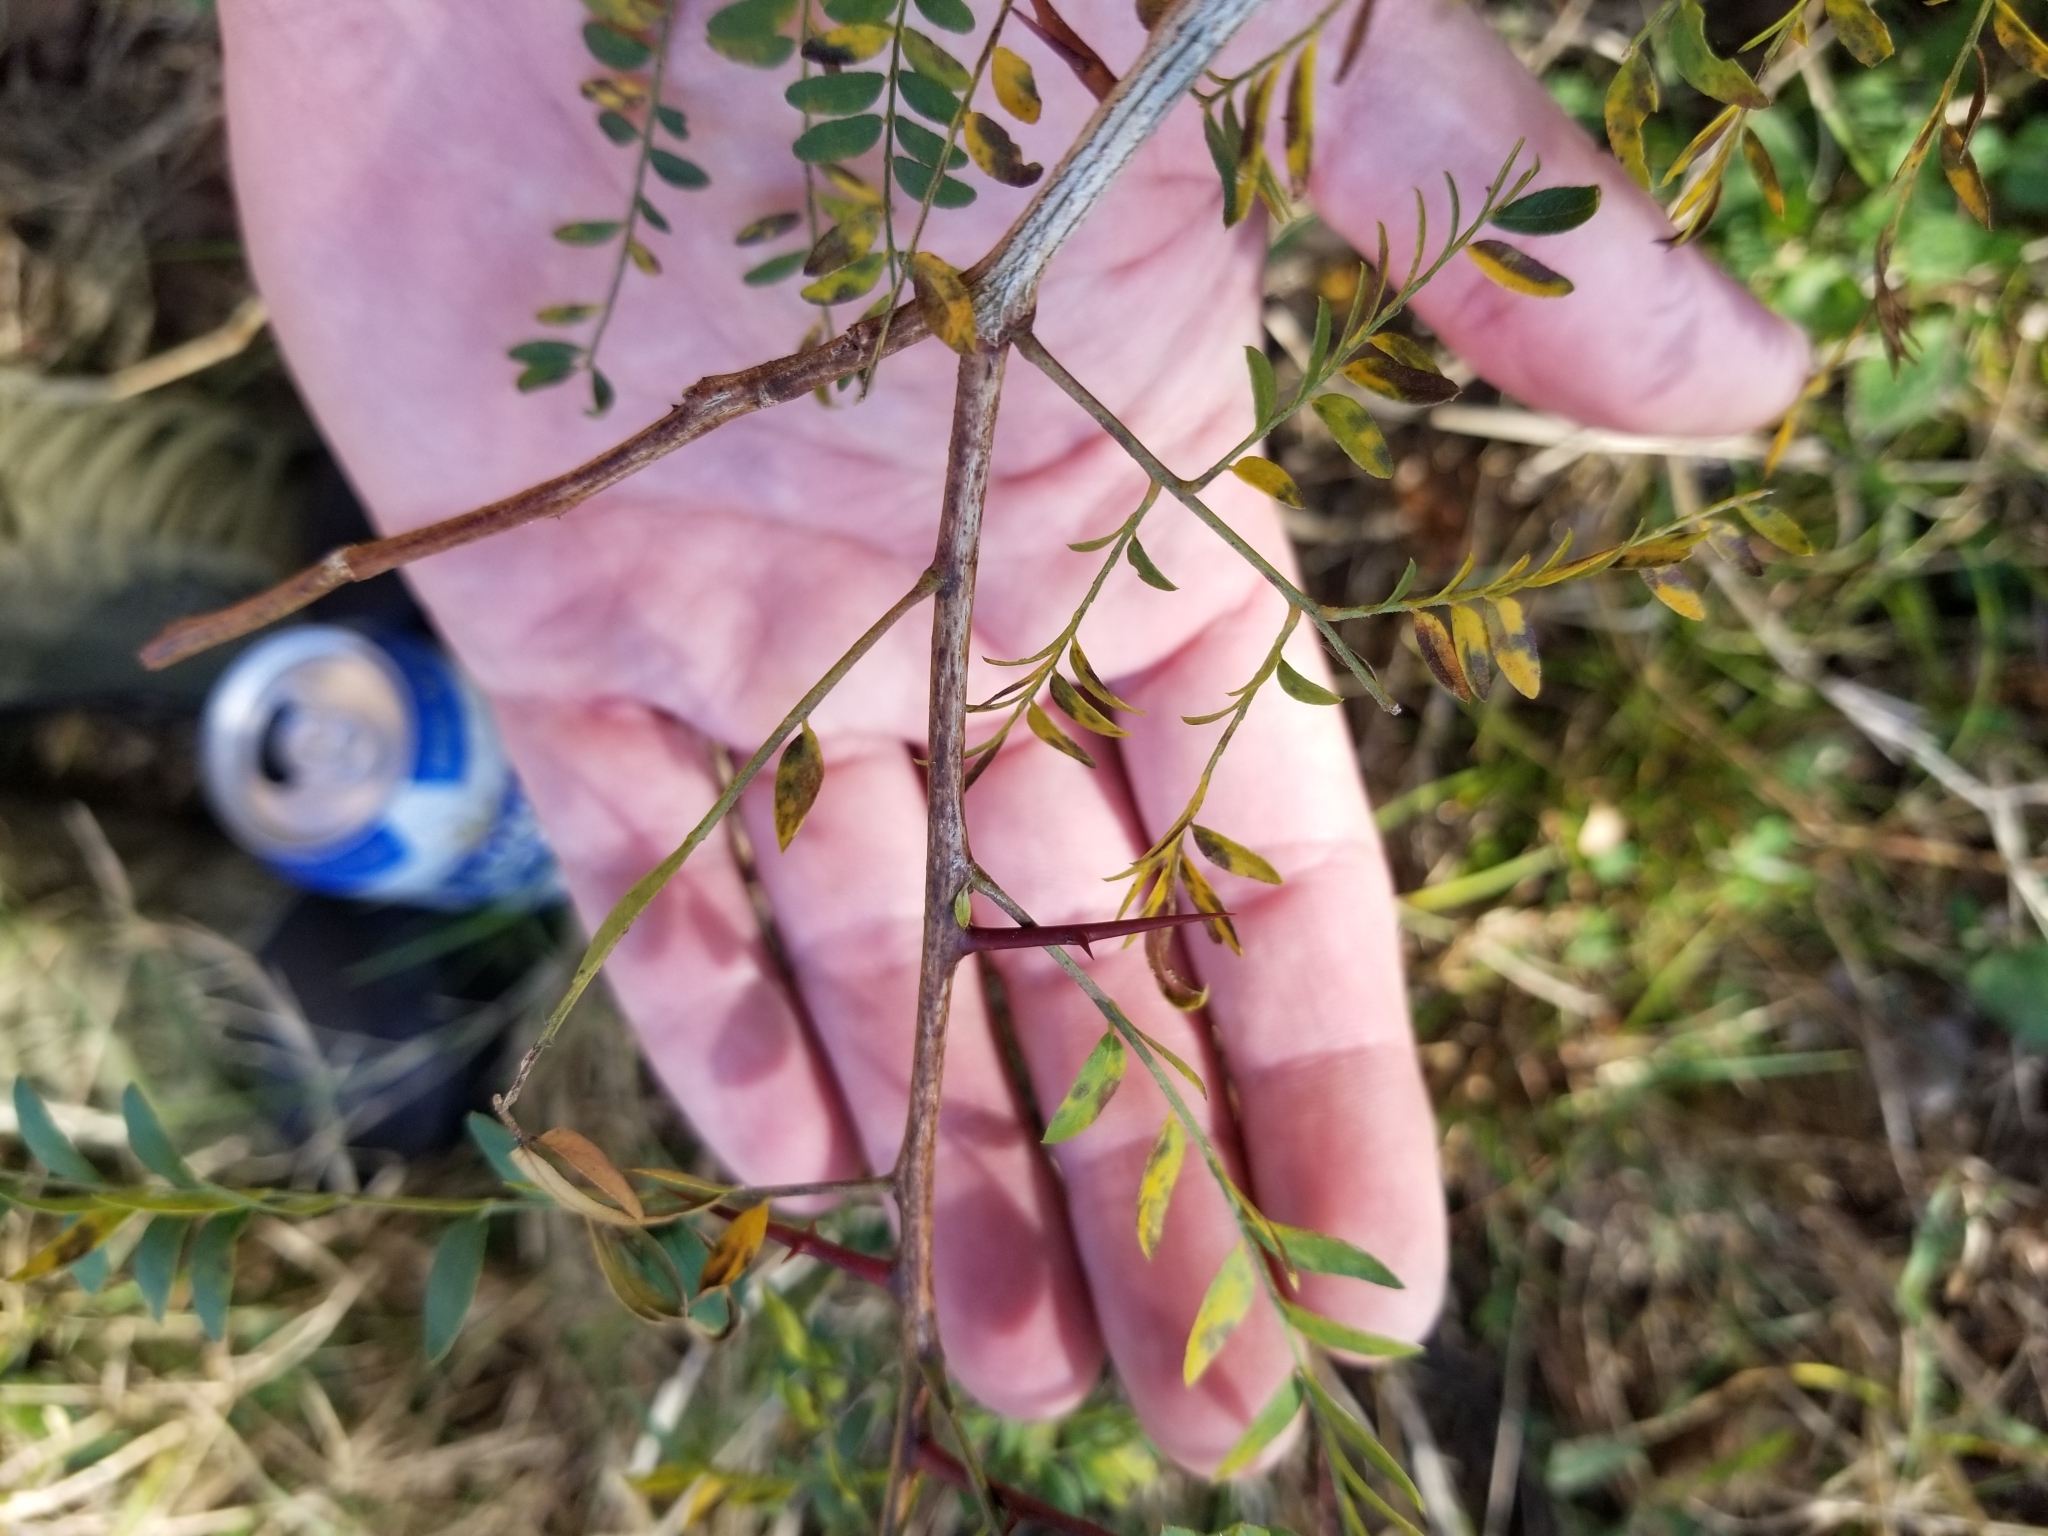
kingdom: Plantae
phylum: Tracheophyta
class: Magnoliopsida
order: Fabales
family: Fabaceae
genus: Gleditsia
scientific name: Gleditsia triacanthos
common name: Common honeylocust
